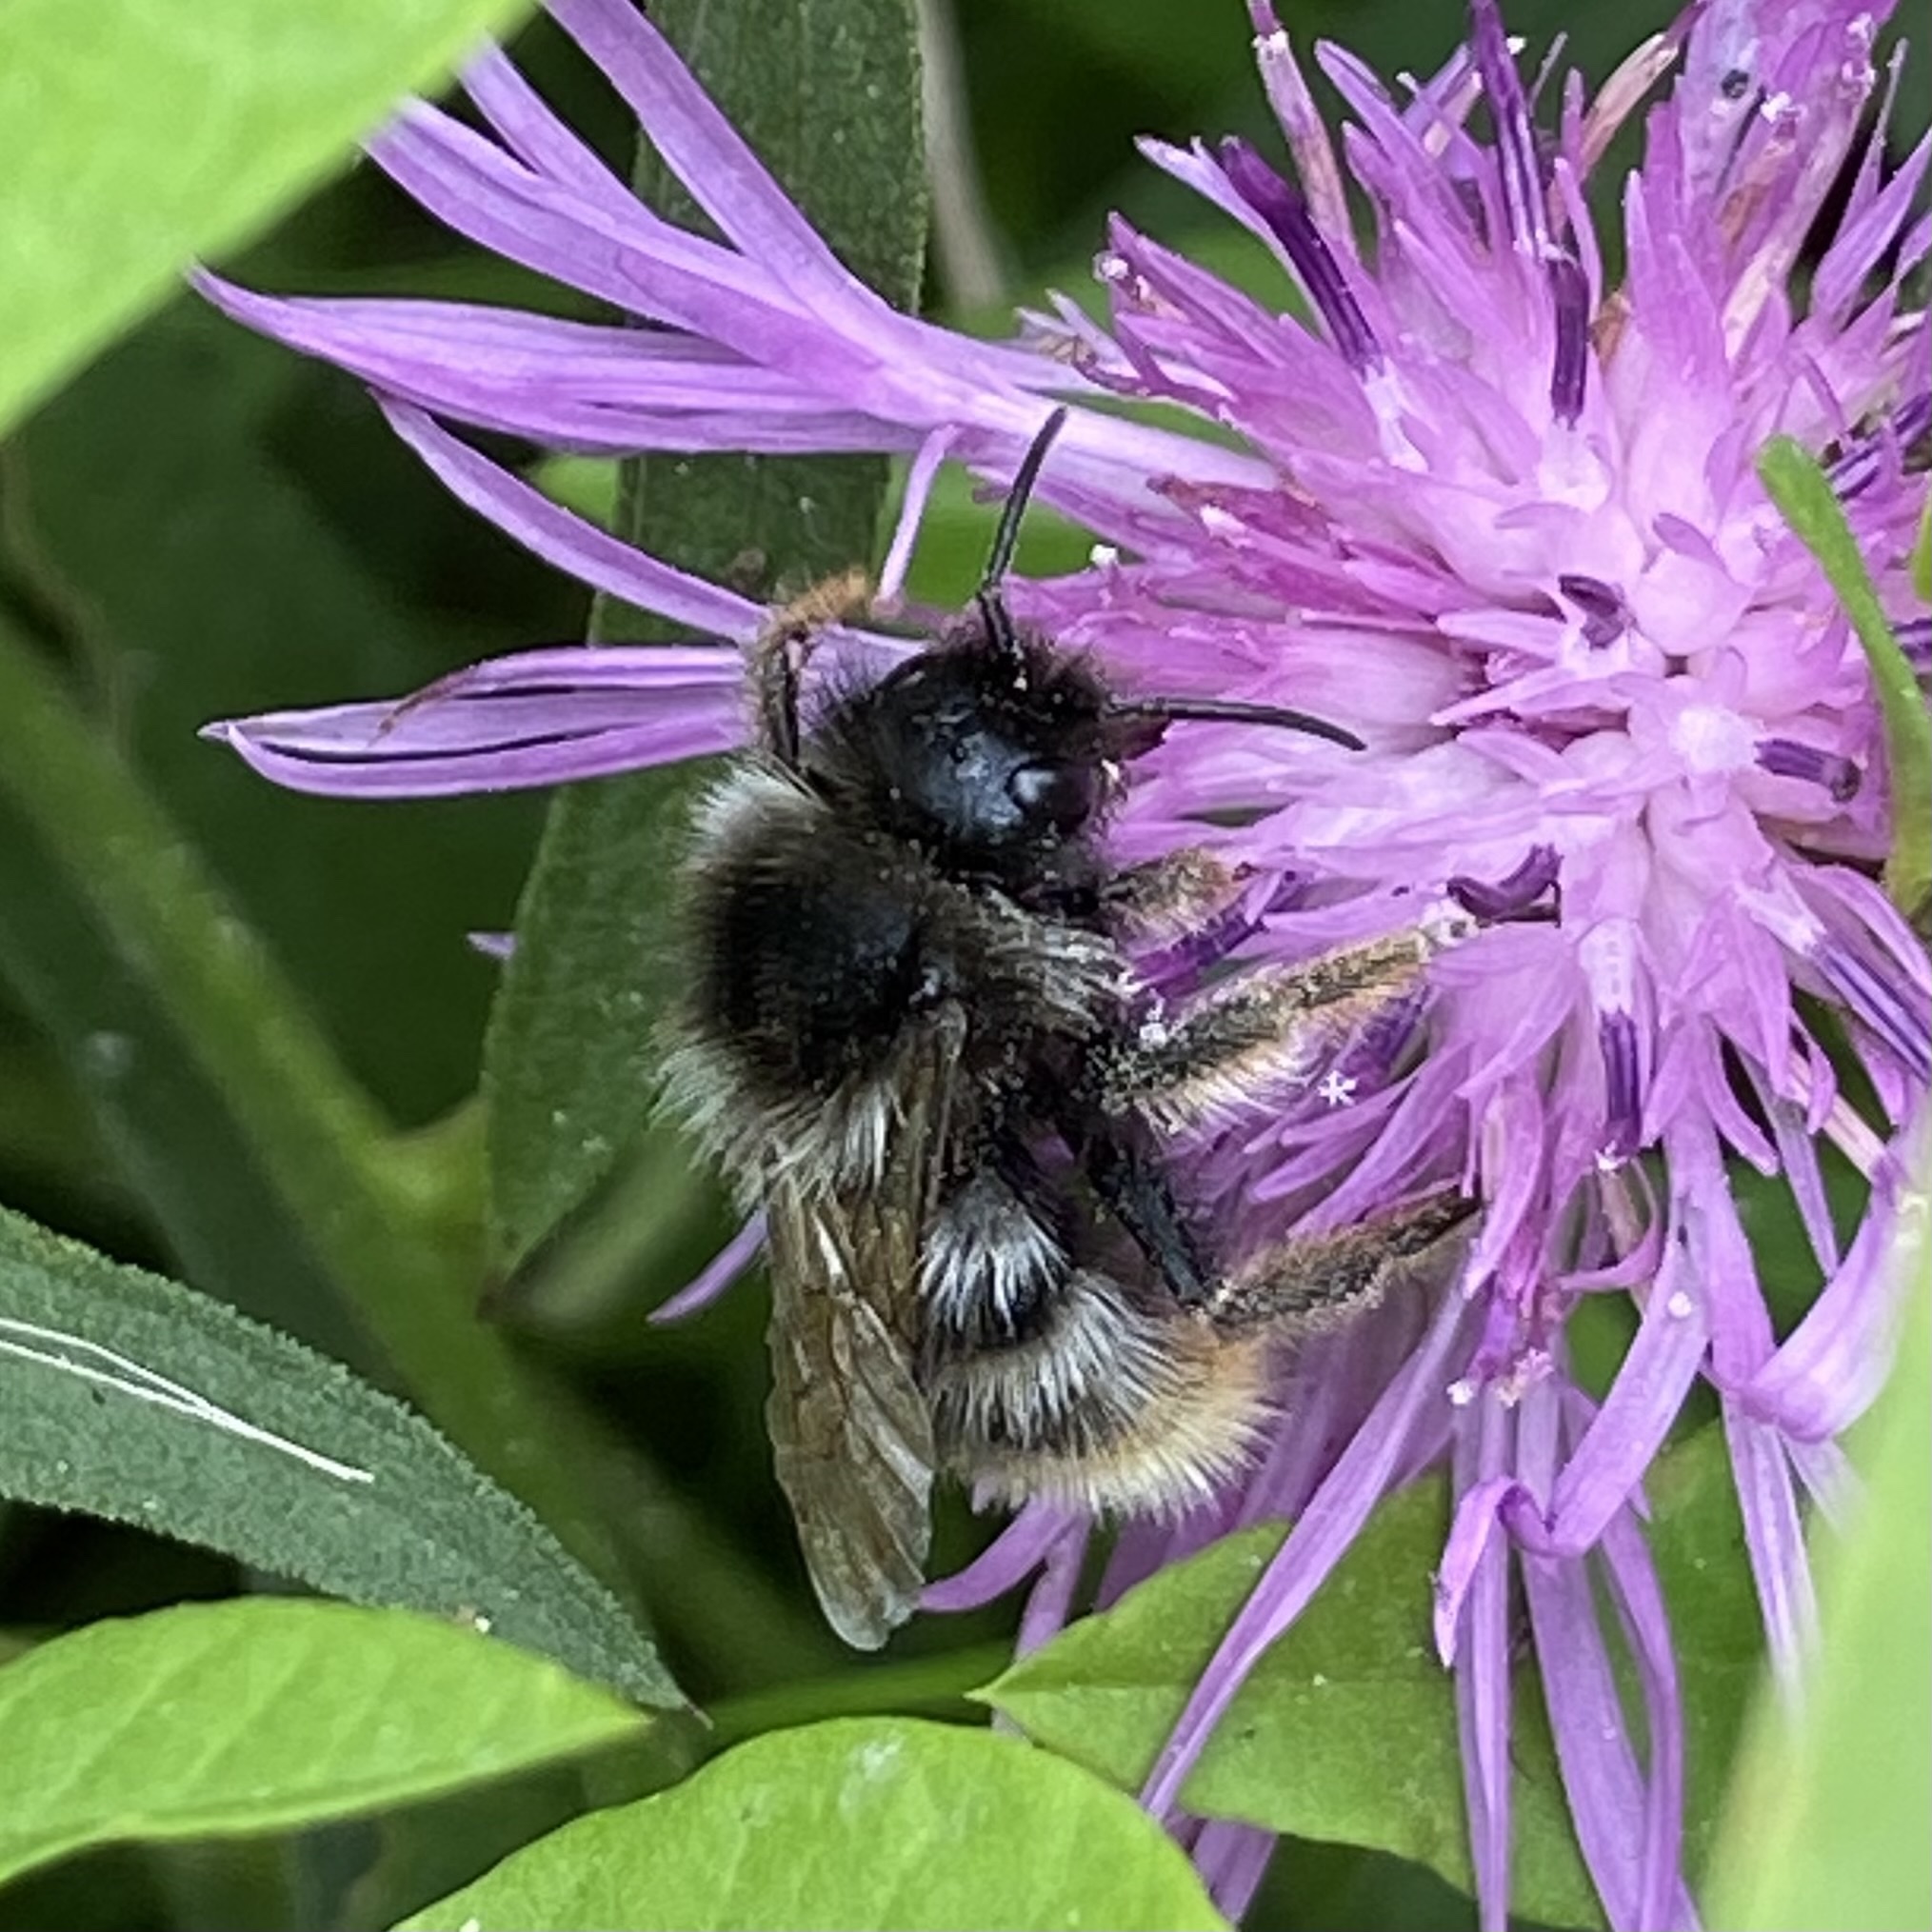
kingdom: Animalia
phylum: Arthropoda
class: Insecta
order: Hymenoptera
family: Apidae
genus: Bombus
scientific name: Bombus rupestris
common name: Hill cuckoo-bee
